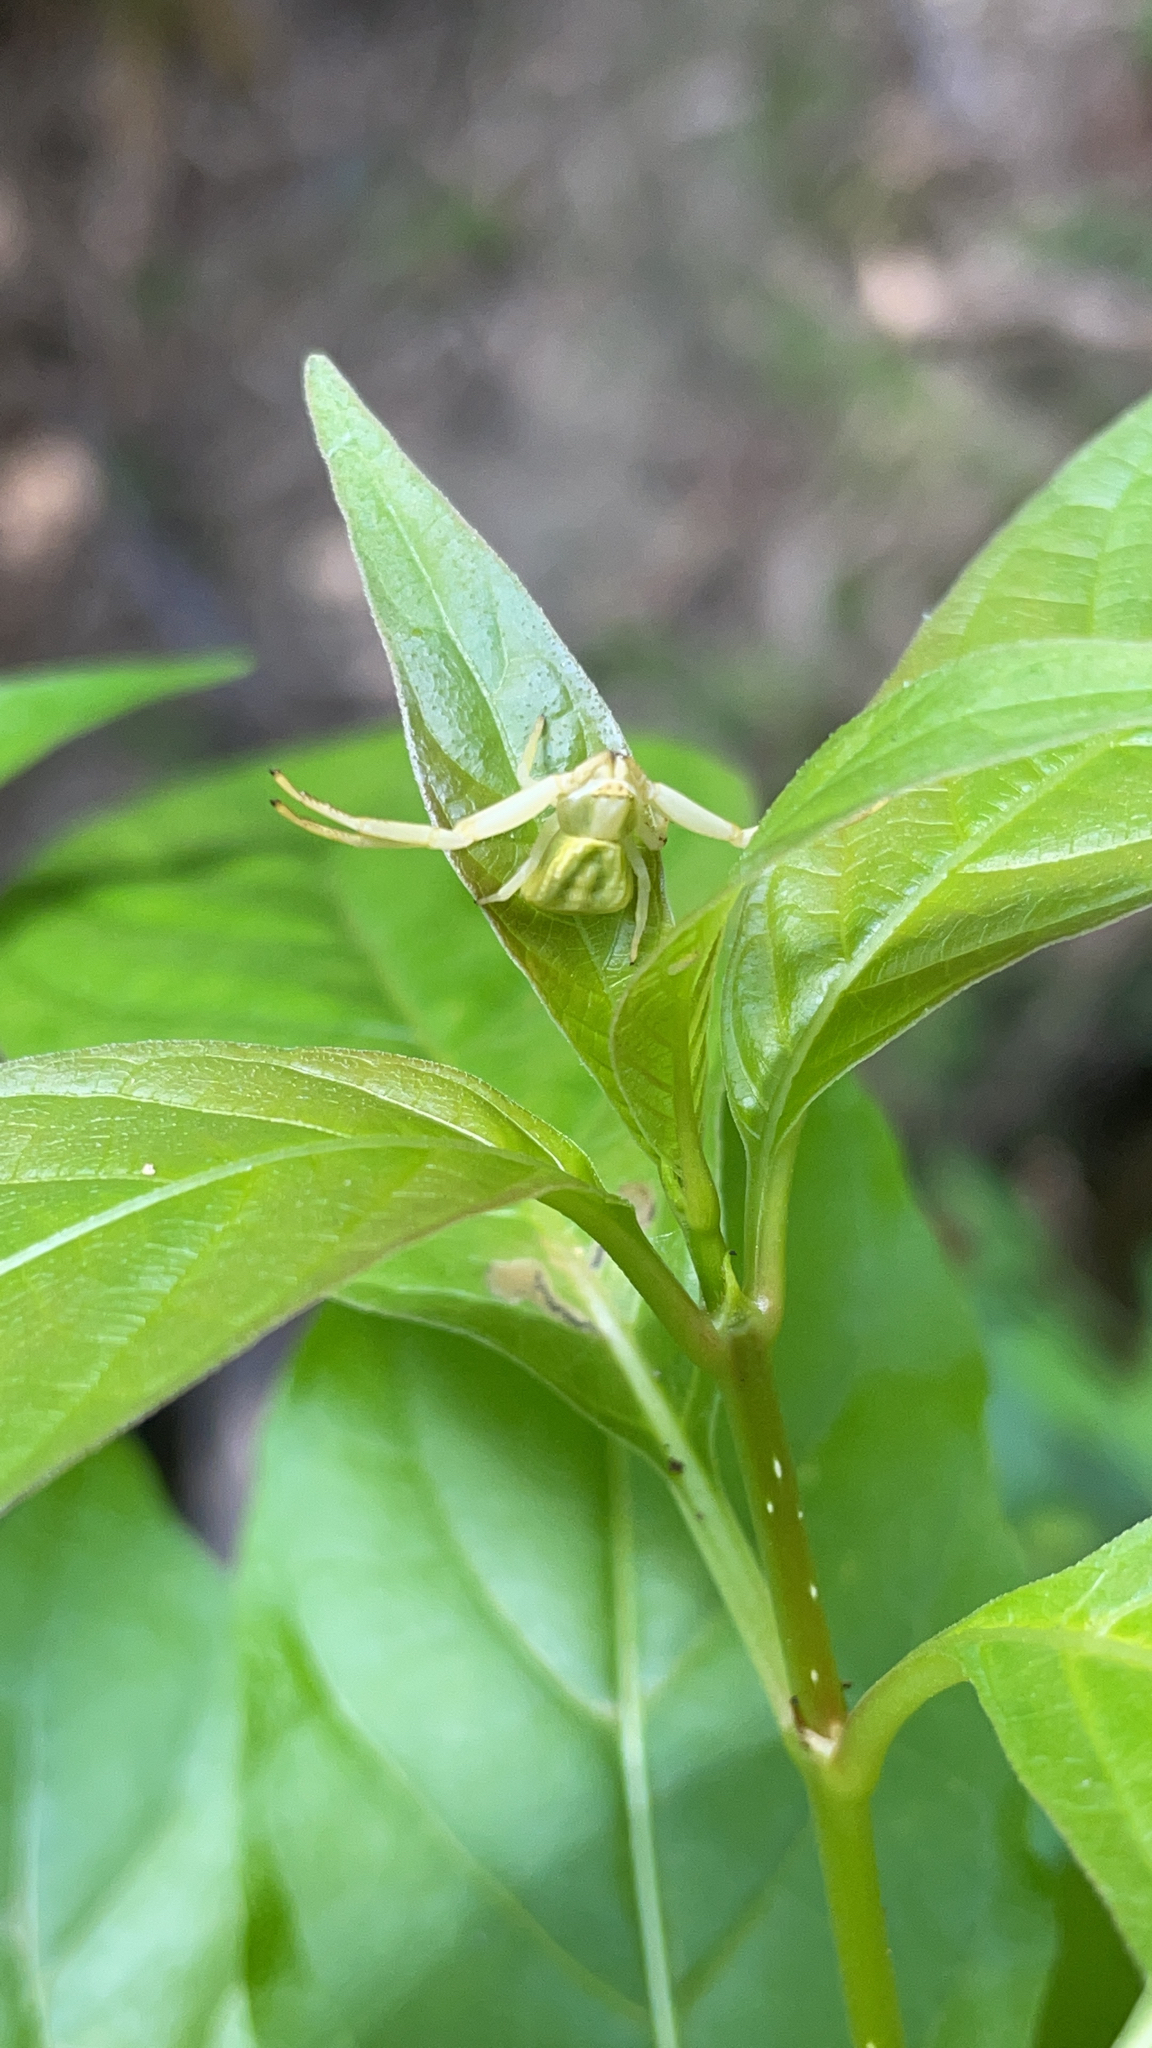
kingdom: Animalia
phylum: Arthropoda
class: Arachnida
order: Araneae
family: Thomisidae
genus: Misumenoides
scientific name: Misumenoides formosipes
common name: White-banded crab spider
